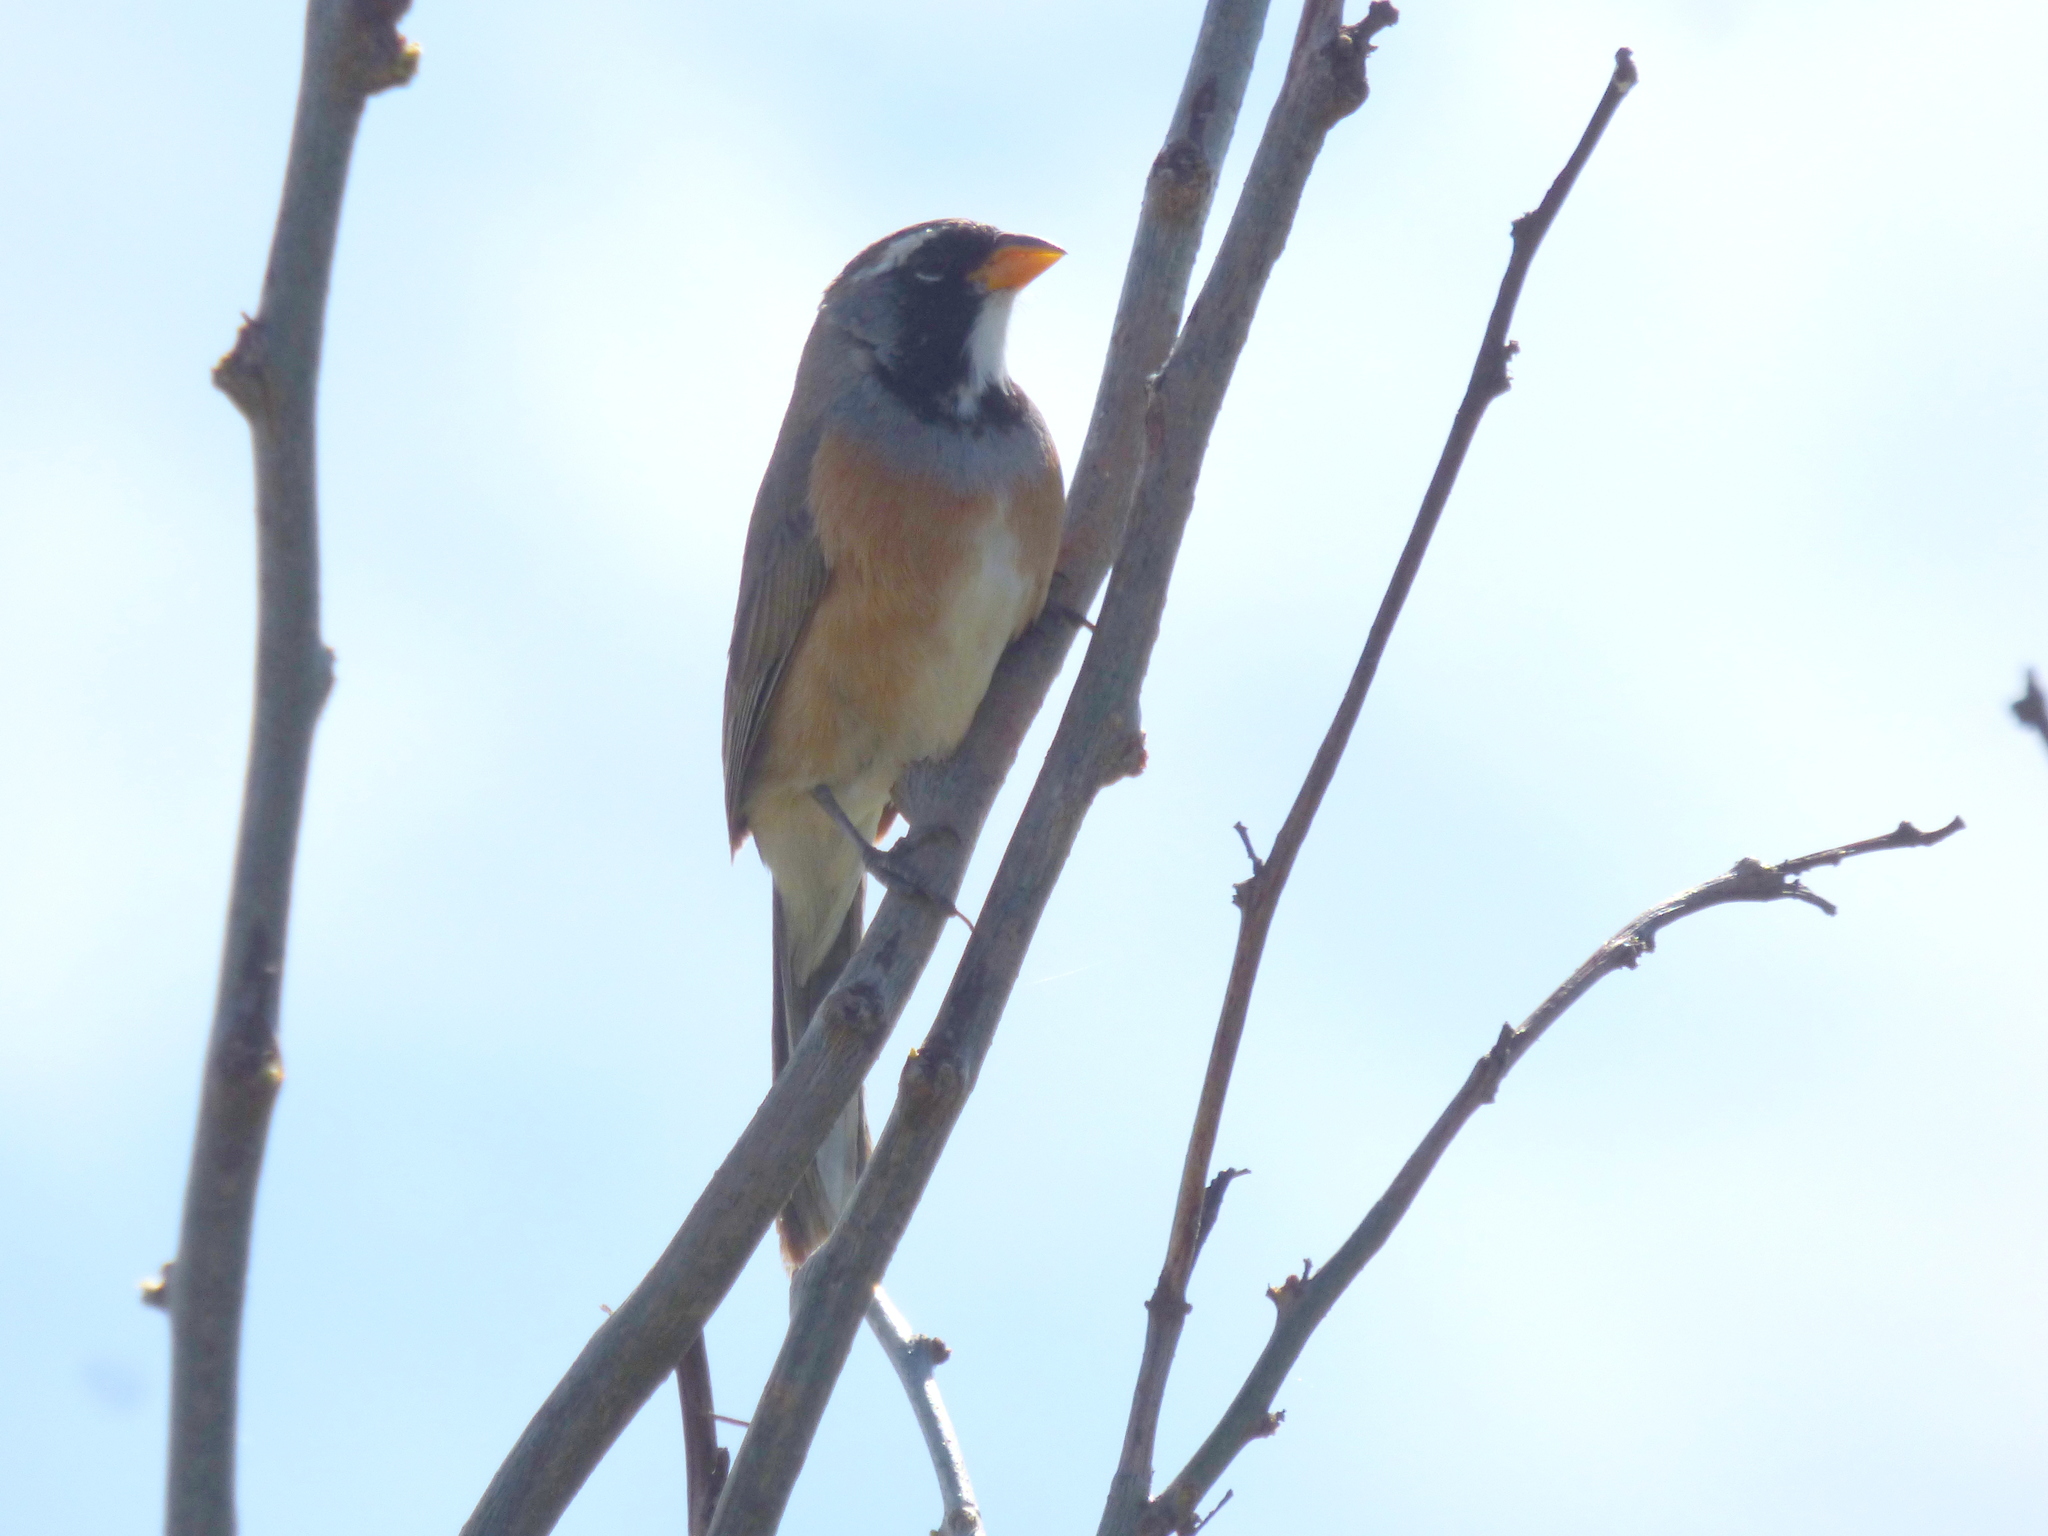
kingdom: Animalia
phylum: Chordata
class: Aves
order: Passeriformes
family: Thraupidae
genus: Saltatricula
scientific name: Saltatricula multicolor
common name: Many-colored chaco finch
